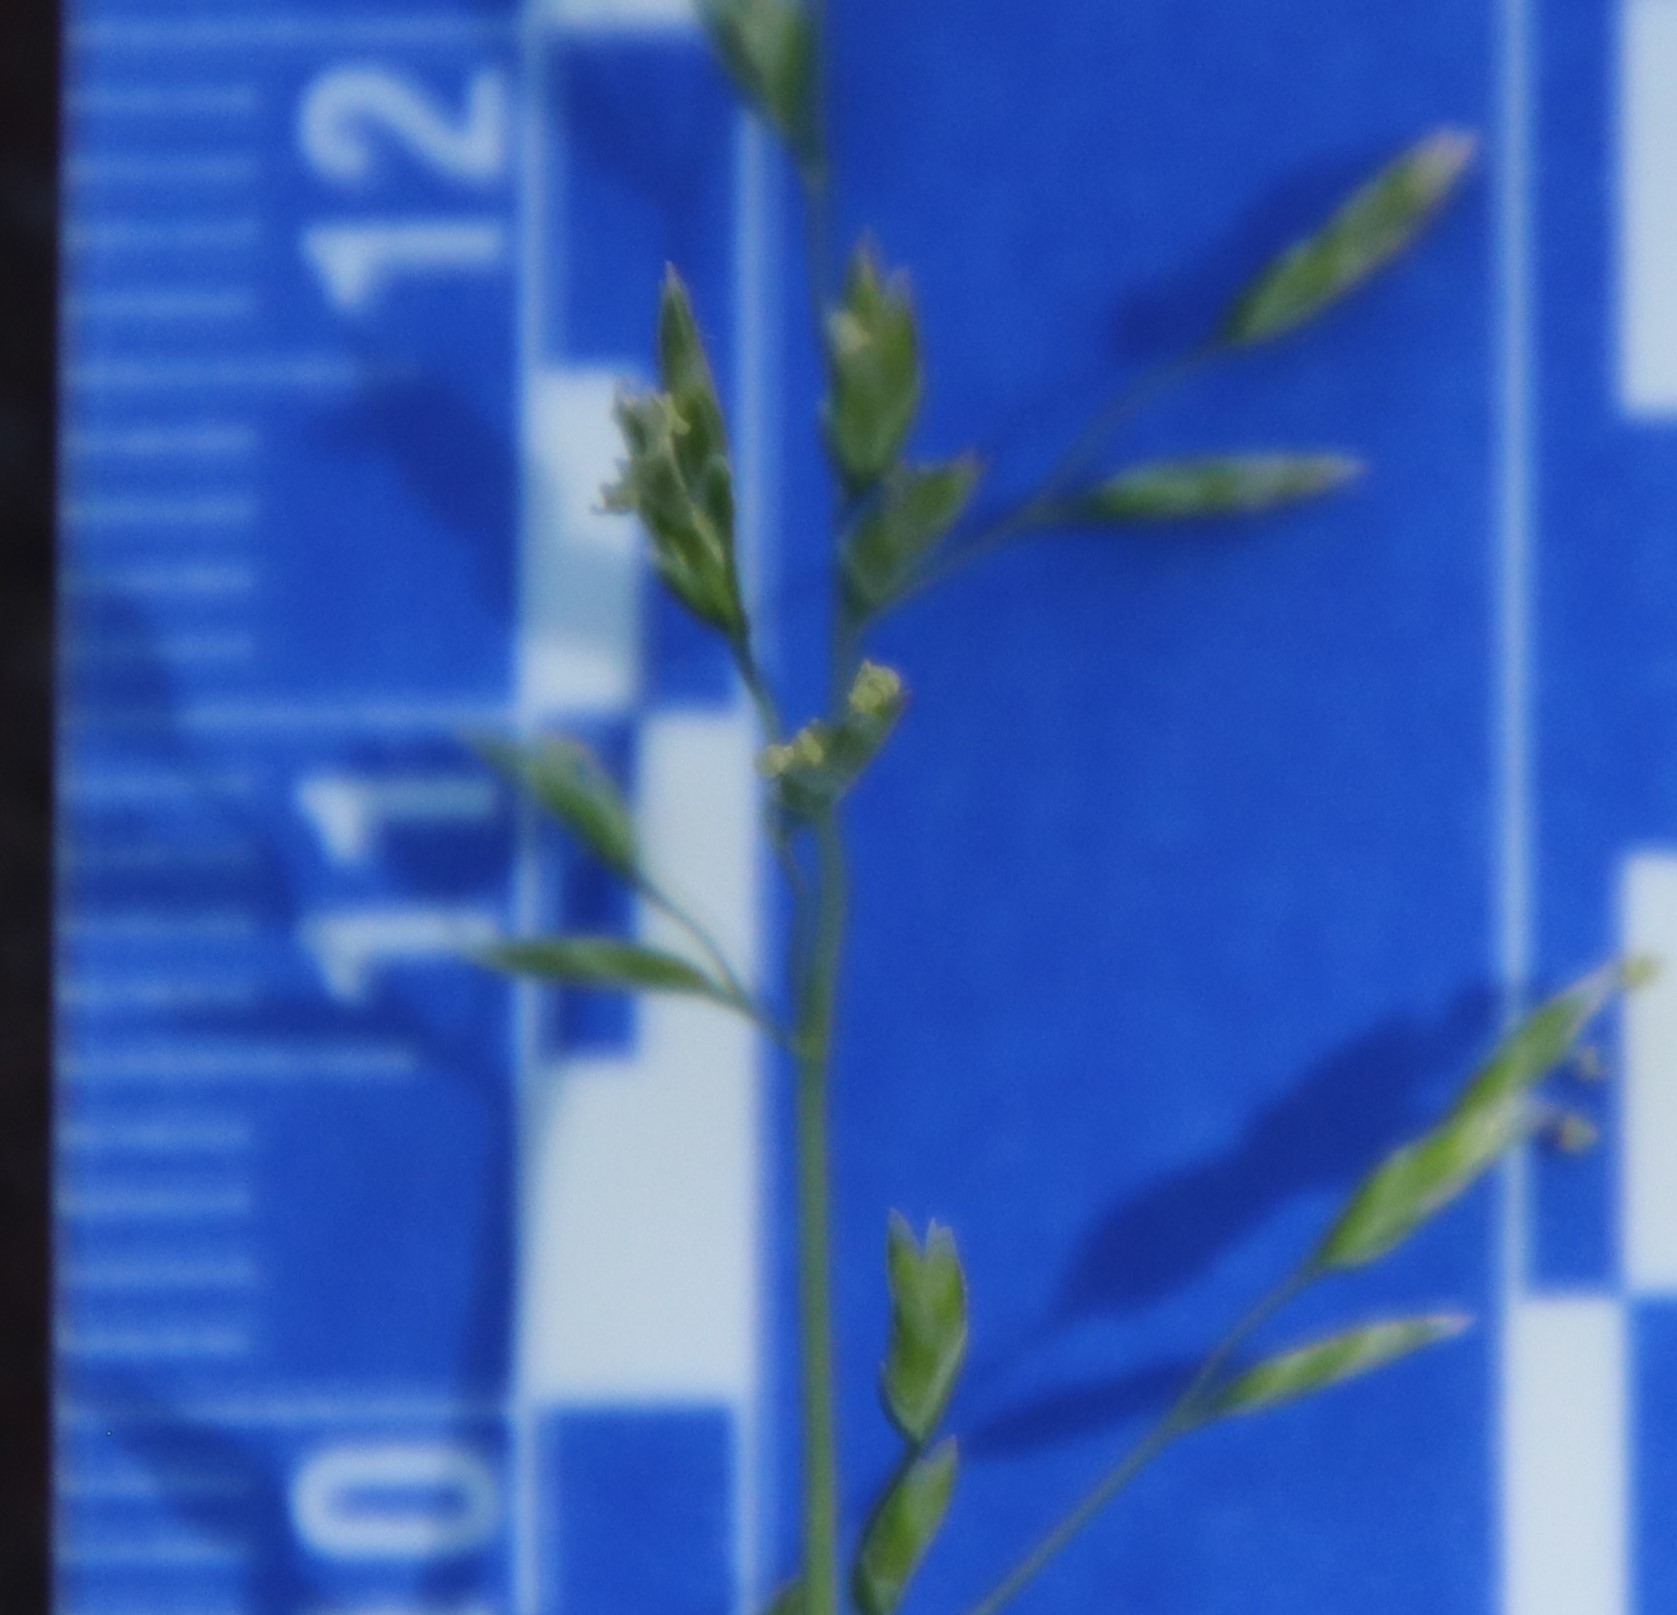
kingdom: Plantae
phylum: Tracheophyta
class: Liliopsida
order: Poales
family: Poaceae
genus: Poa
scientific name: Poa annua
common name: Annual bluegrass
